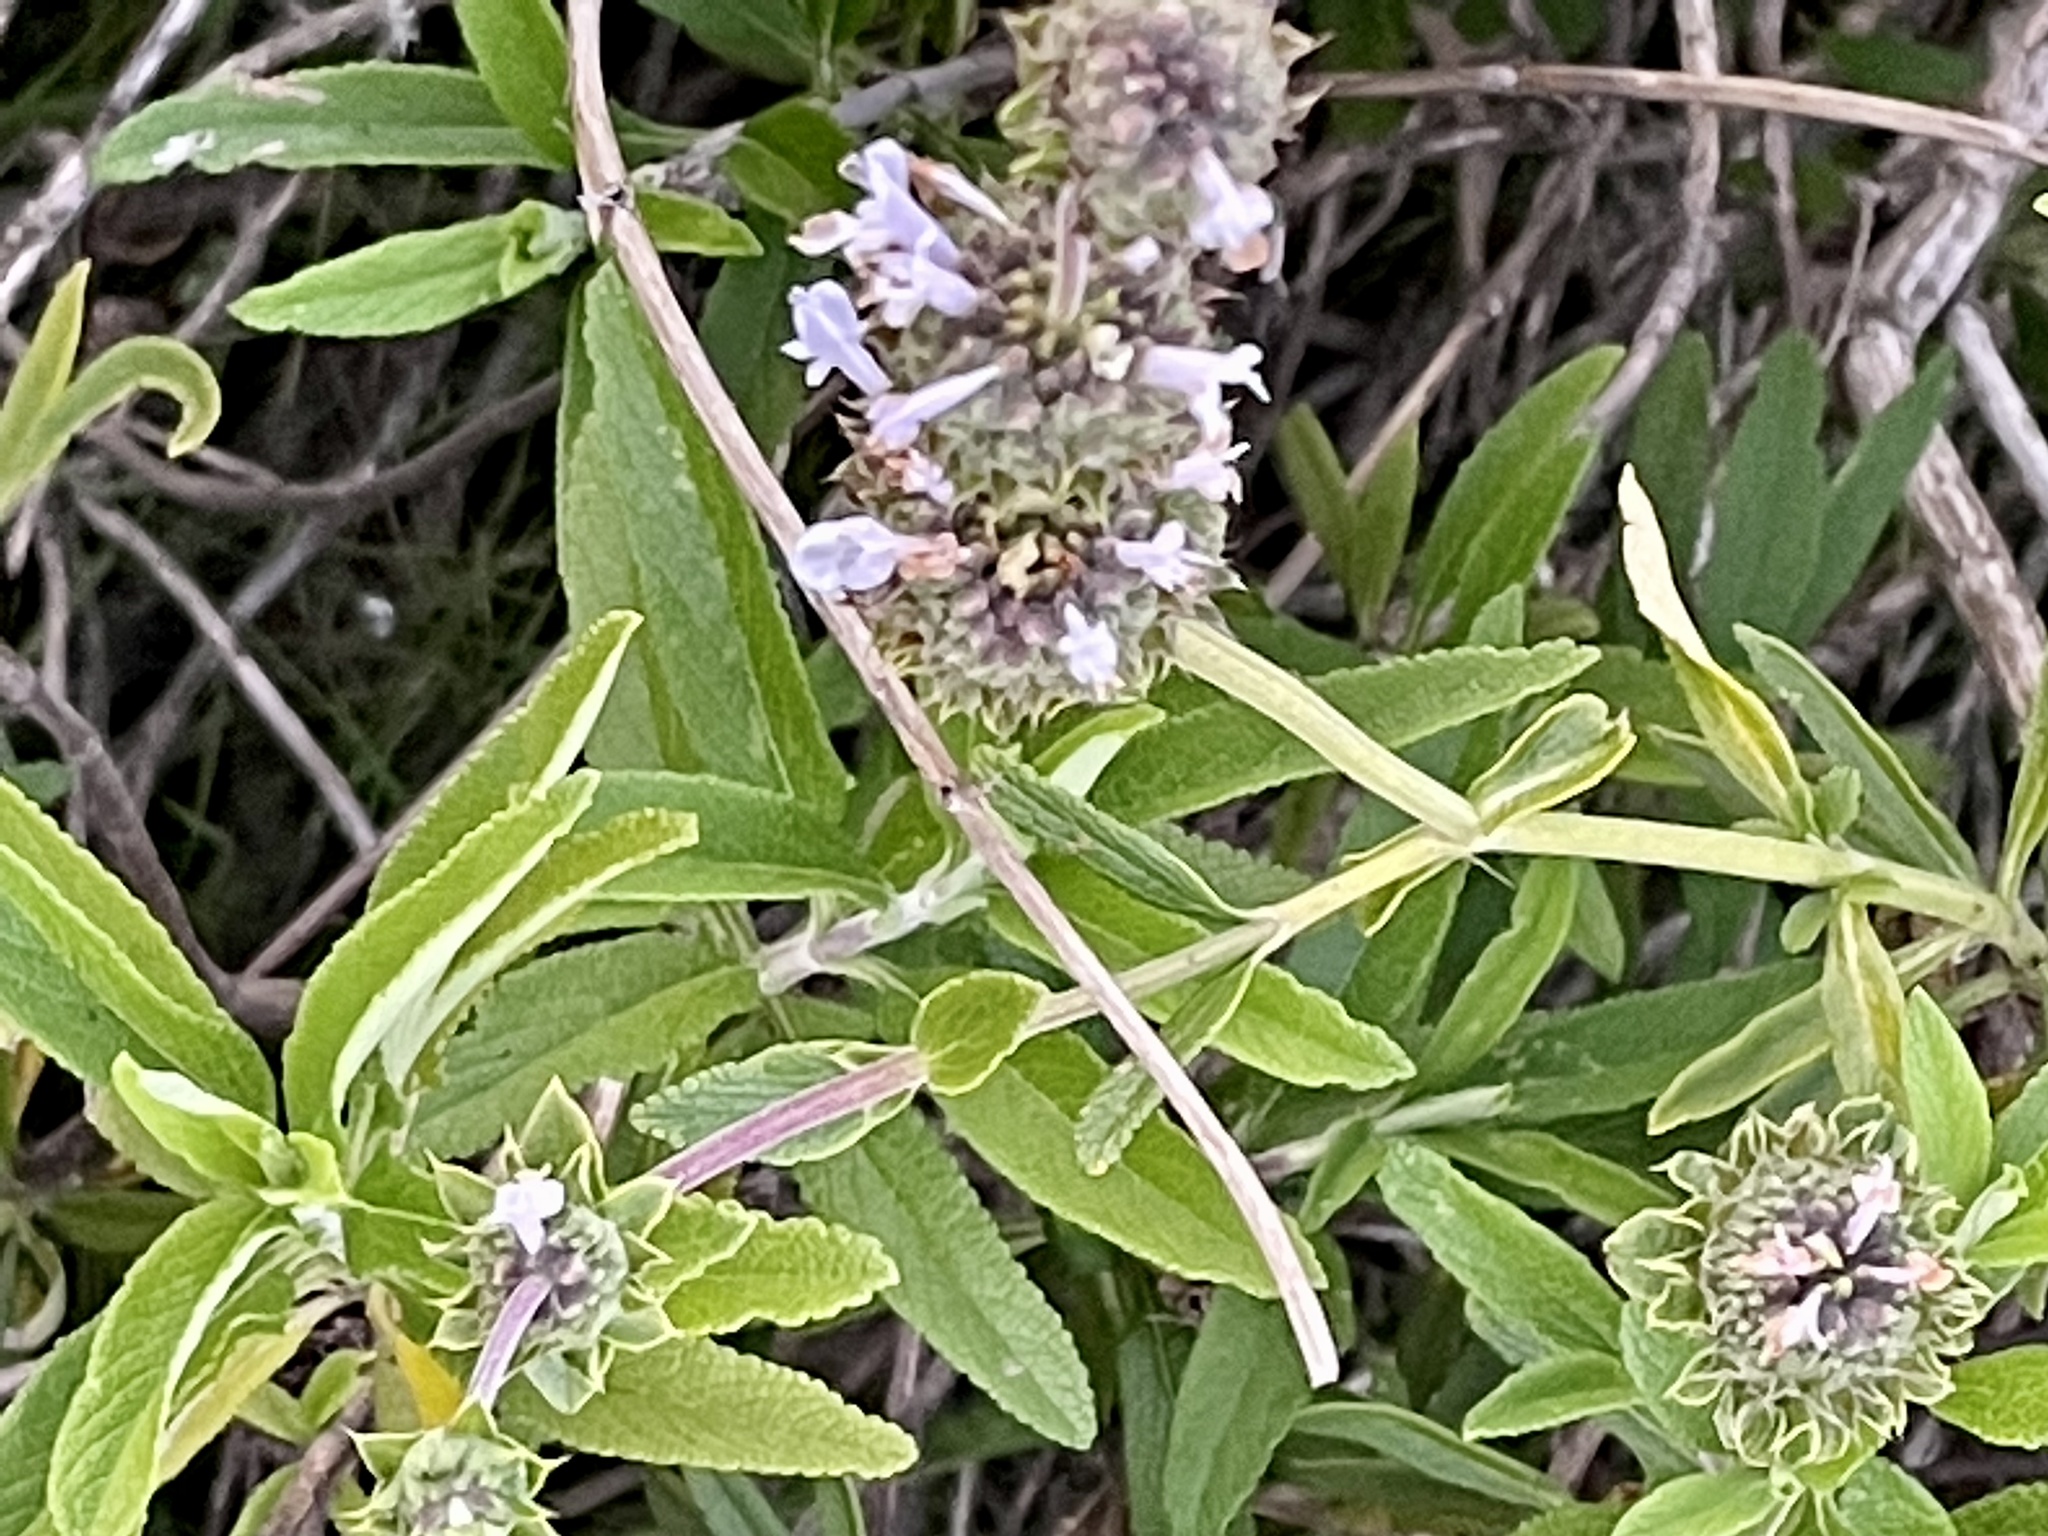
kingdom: Plantae
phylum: Tracheophyta
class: Magnoliopsida
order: Lamiales
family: Lamiaceae
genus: Salvia
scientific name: Salvia mellifera
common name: Black sage
